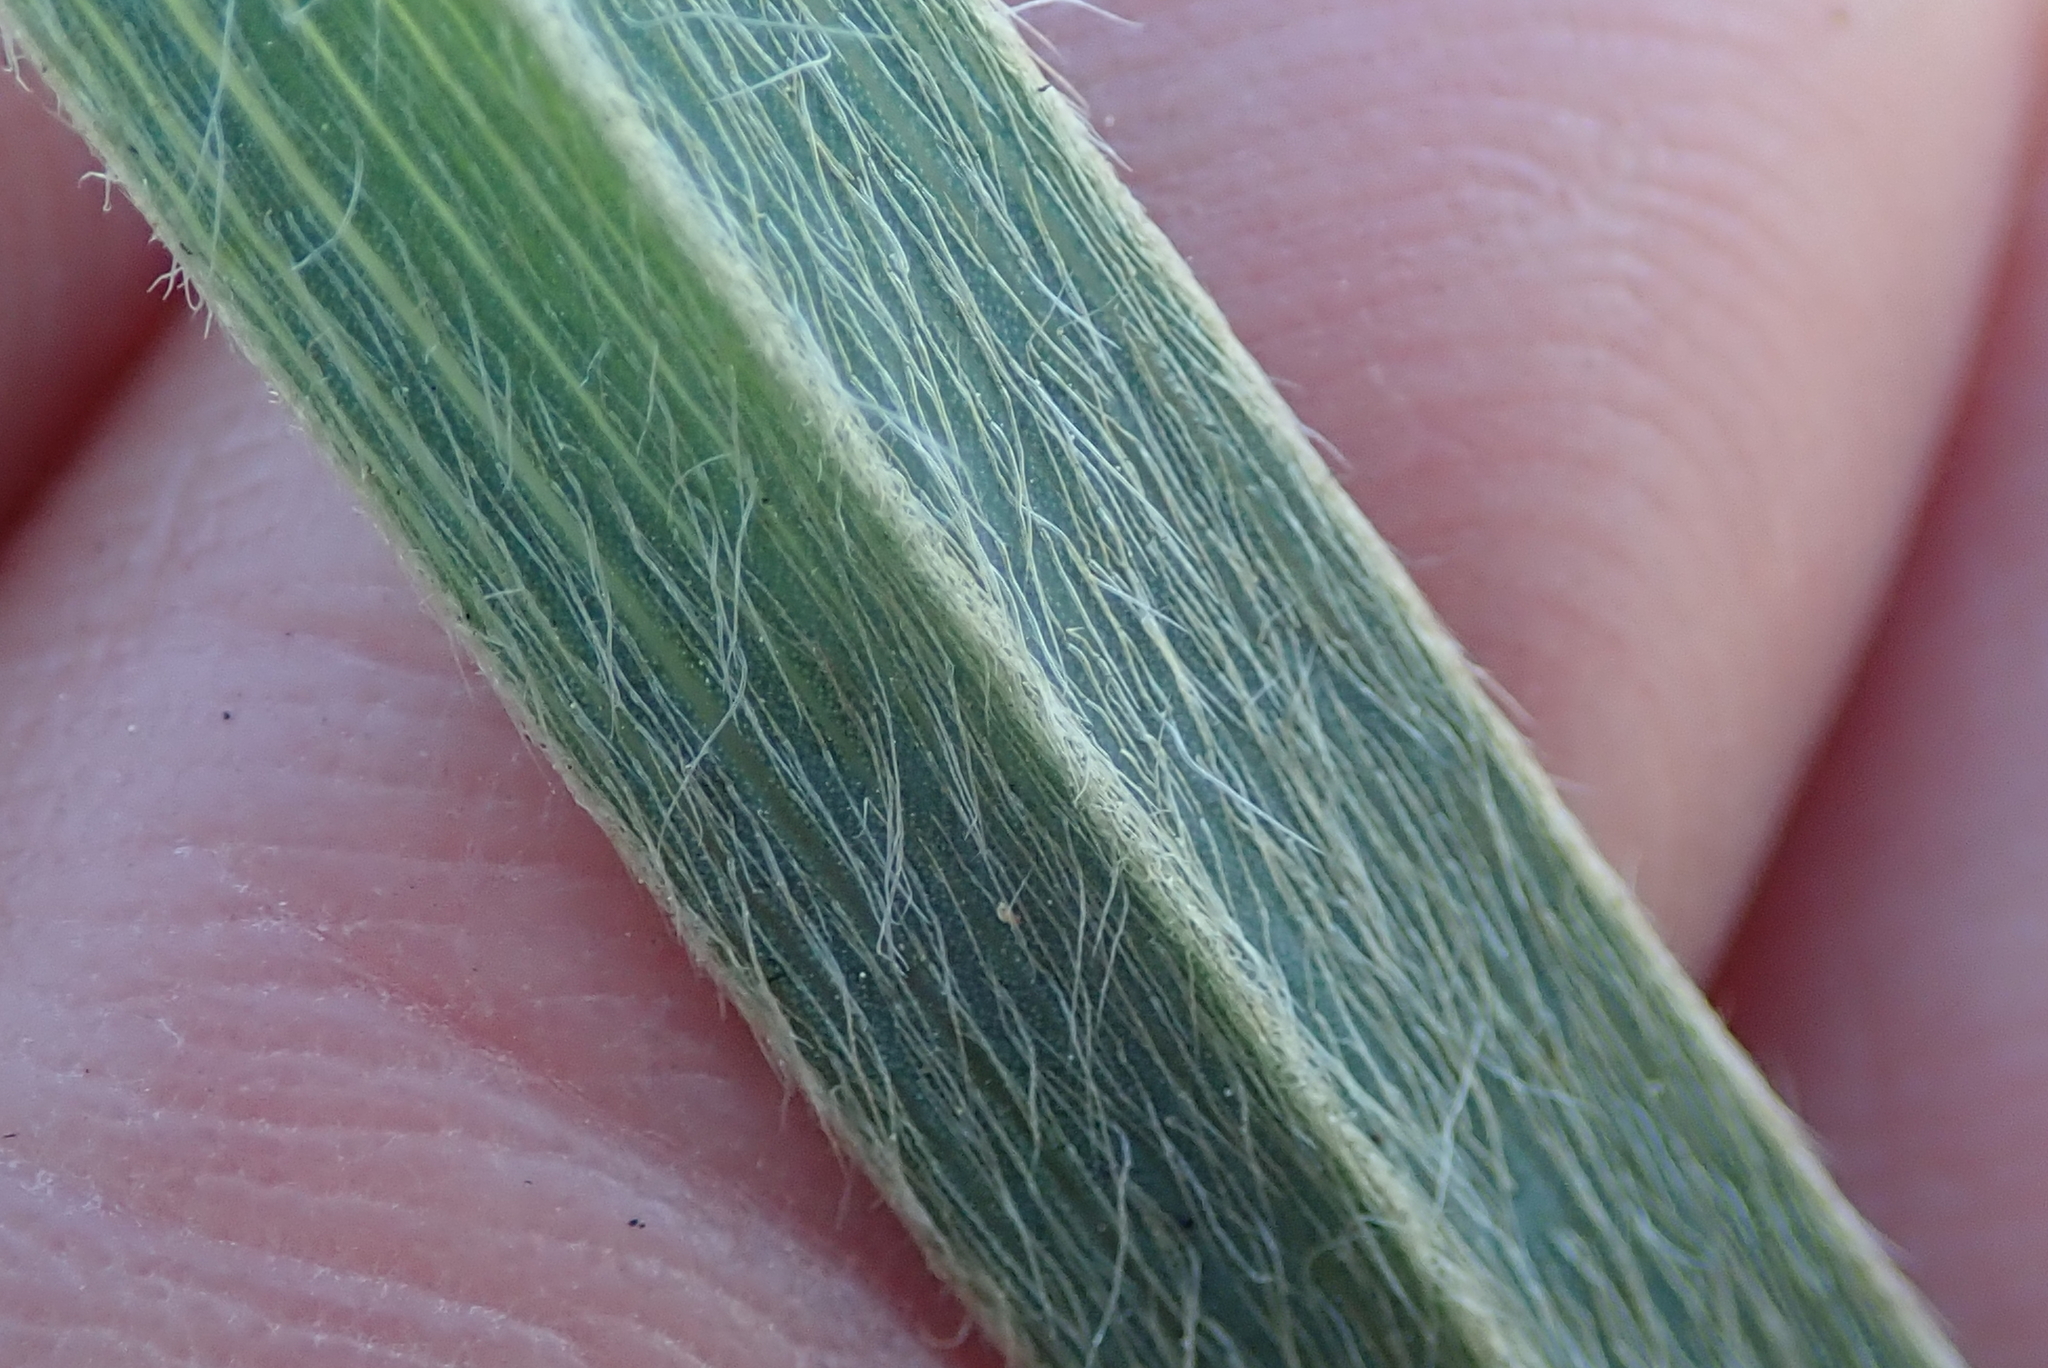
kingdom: Plantae
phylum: Tracheophyta
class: Liliopsida
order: Asparagales
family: Hypoxidaceae
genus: Hypoxis
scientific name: Hypoxis argentea
